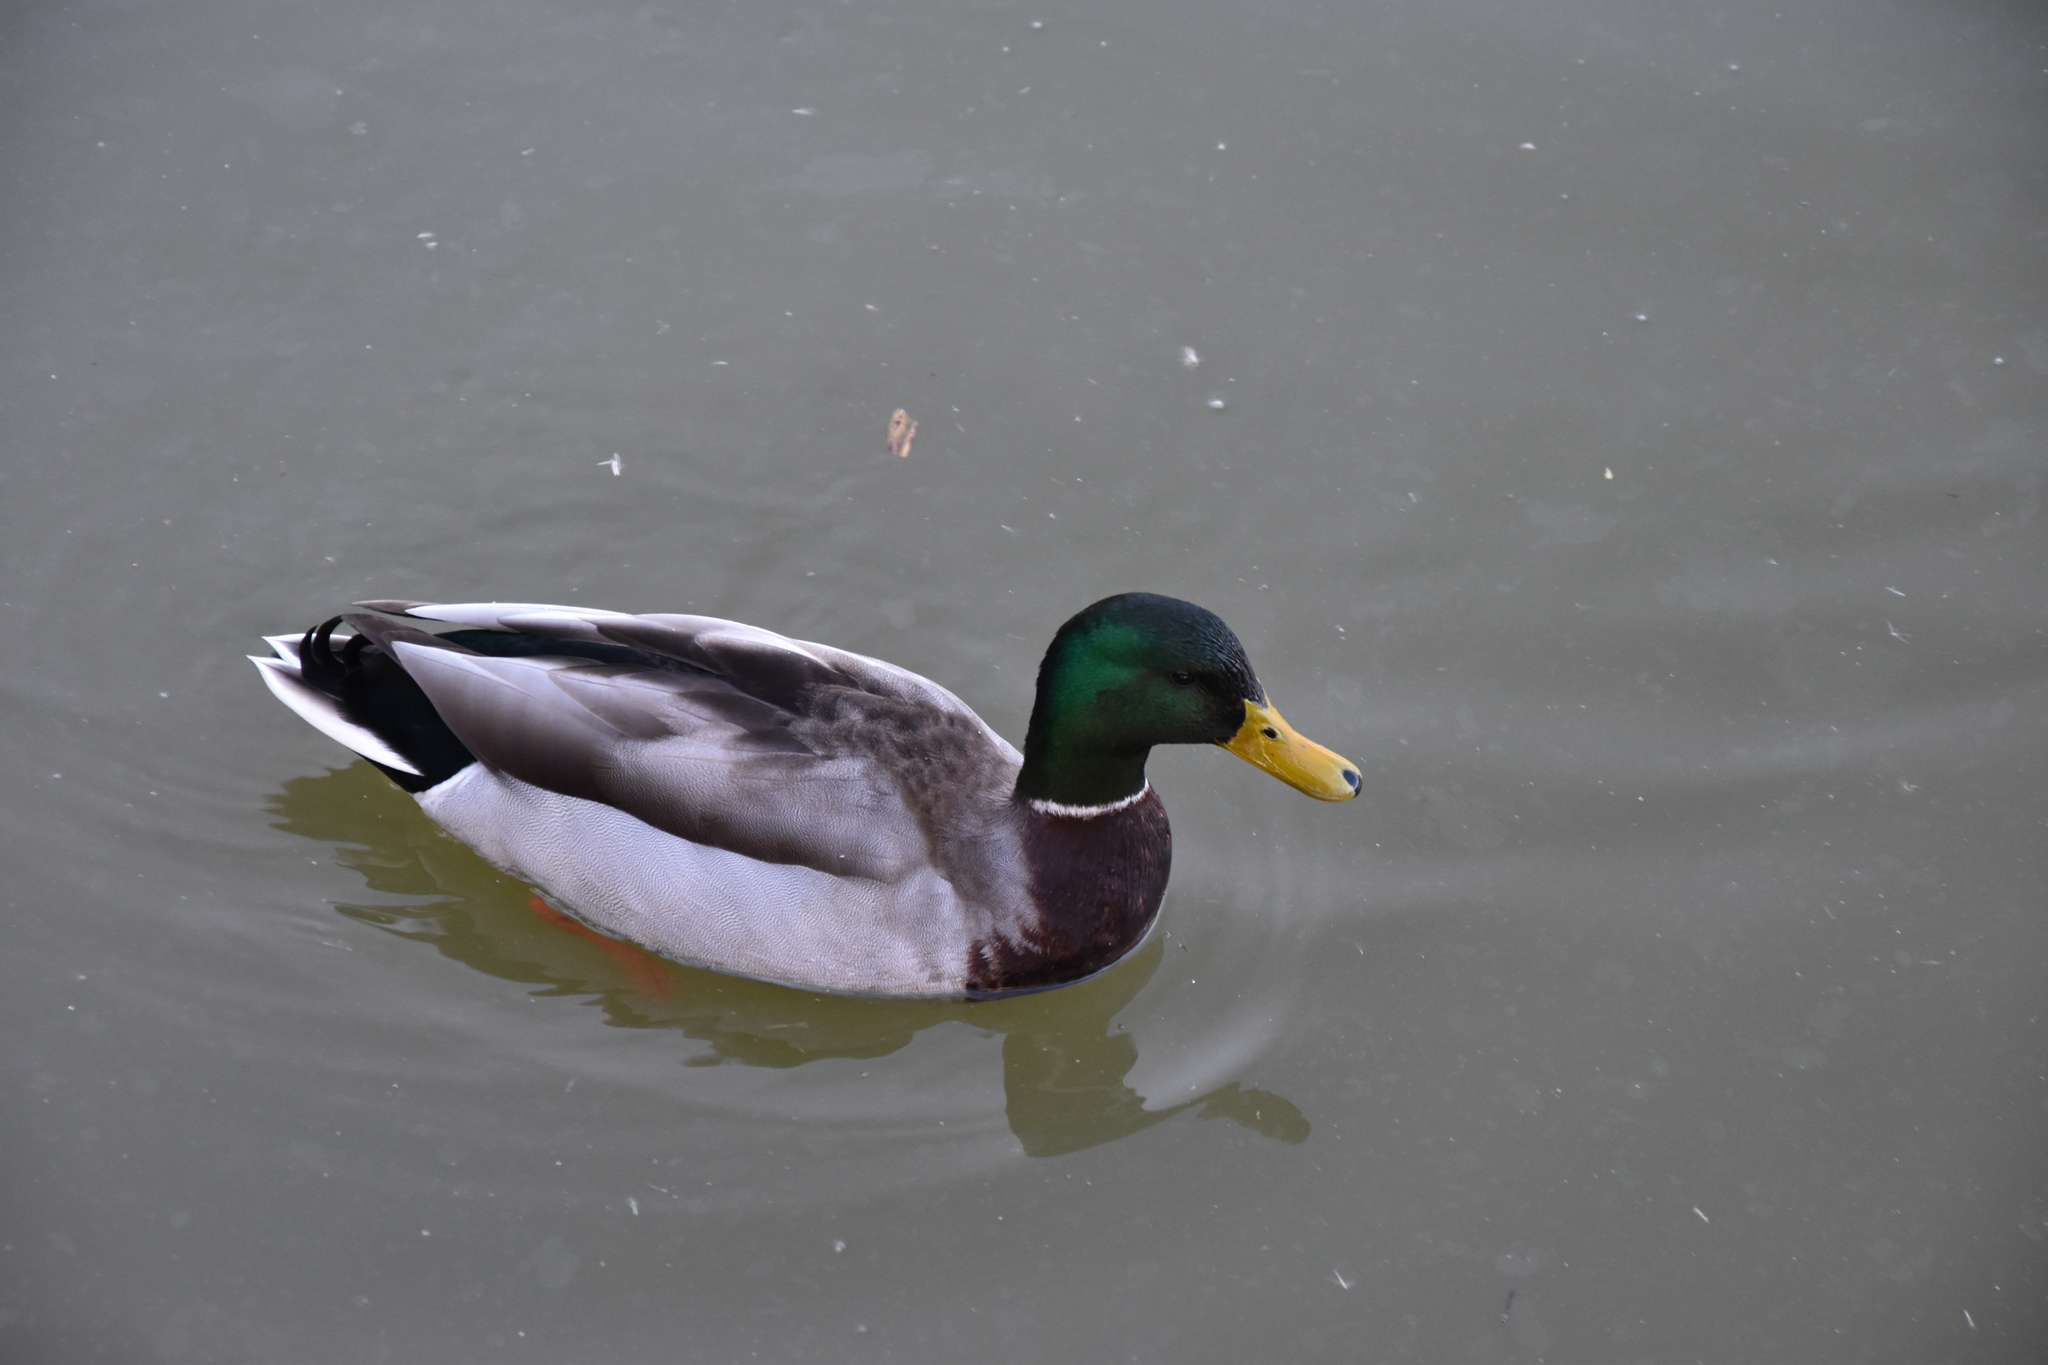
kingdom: Animalia
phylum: Chordata
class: Aves
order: Anseriformes
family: Anatidae
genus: Anas
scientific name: Anas platyrhynchos
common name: Mallard
